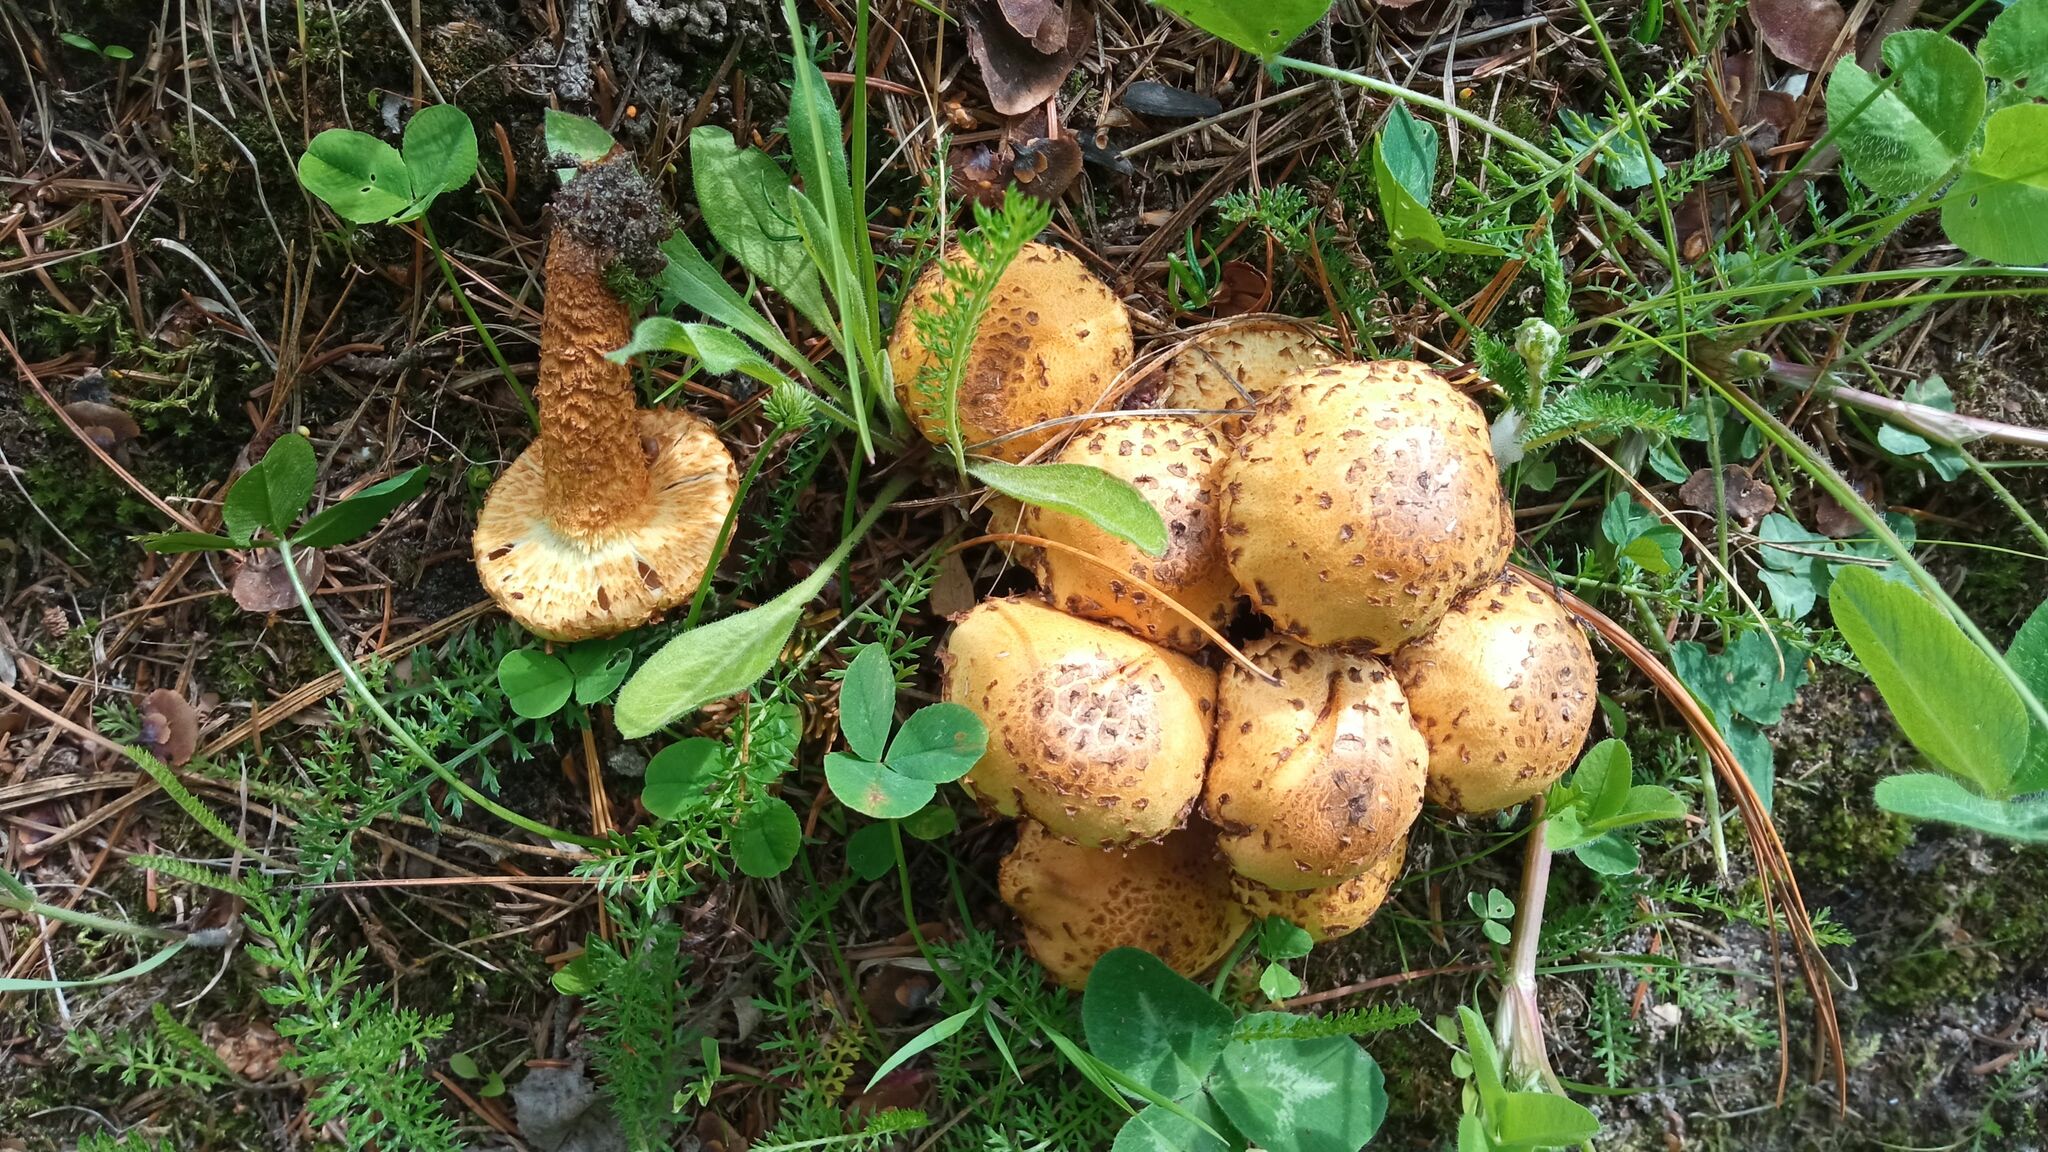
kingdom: Fungi
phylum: Basidiomycota
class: Agaricomycetes
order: Agaricales
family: Strophariaceae
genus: Pholiota
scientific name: Pholiota squarrosa
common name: Shaggy pholiota
